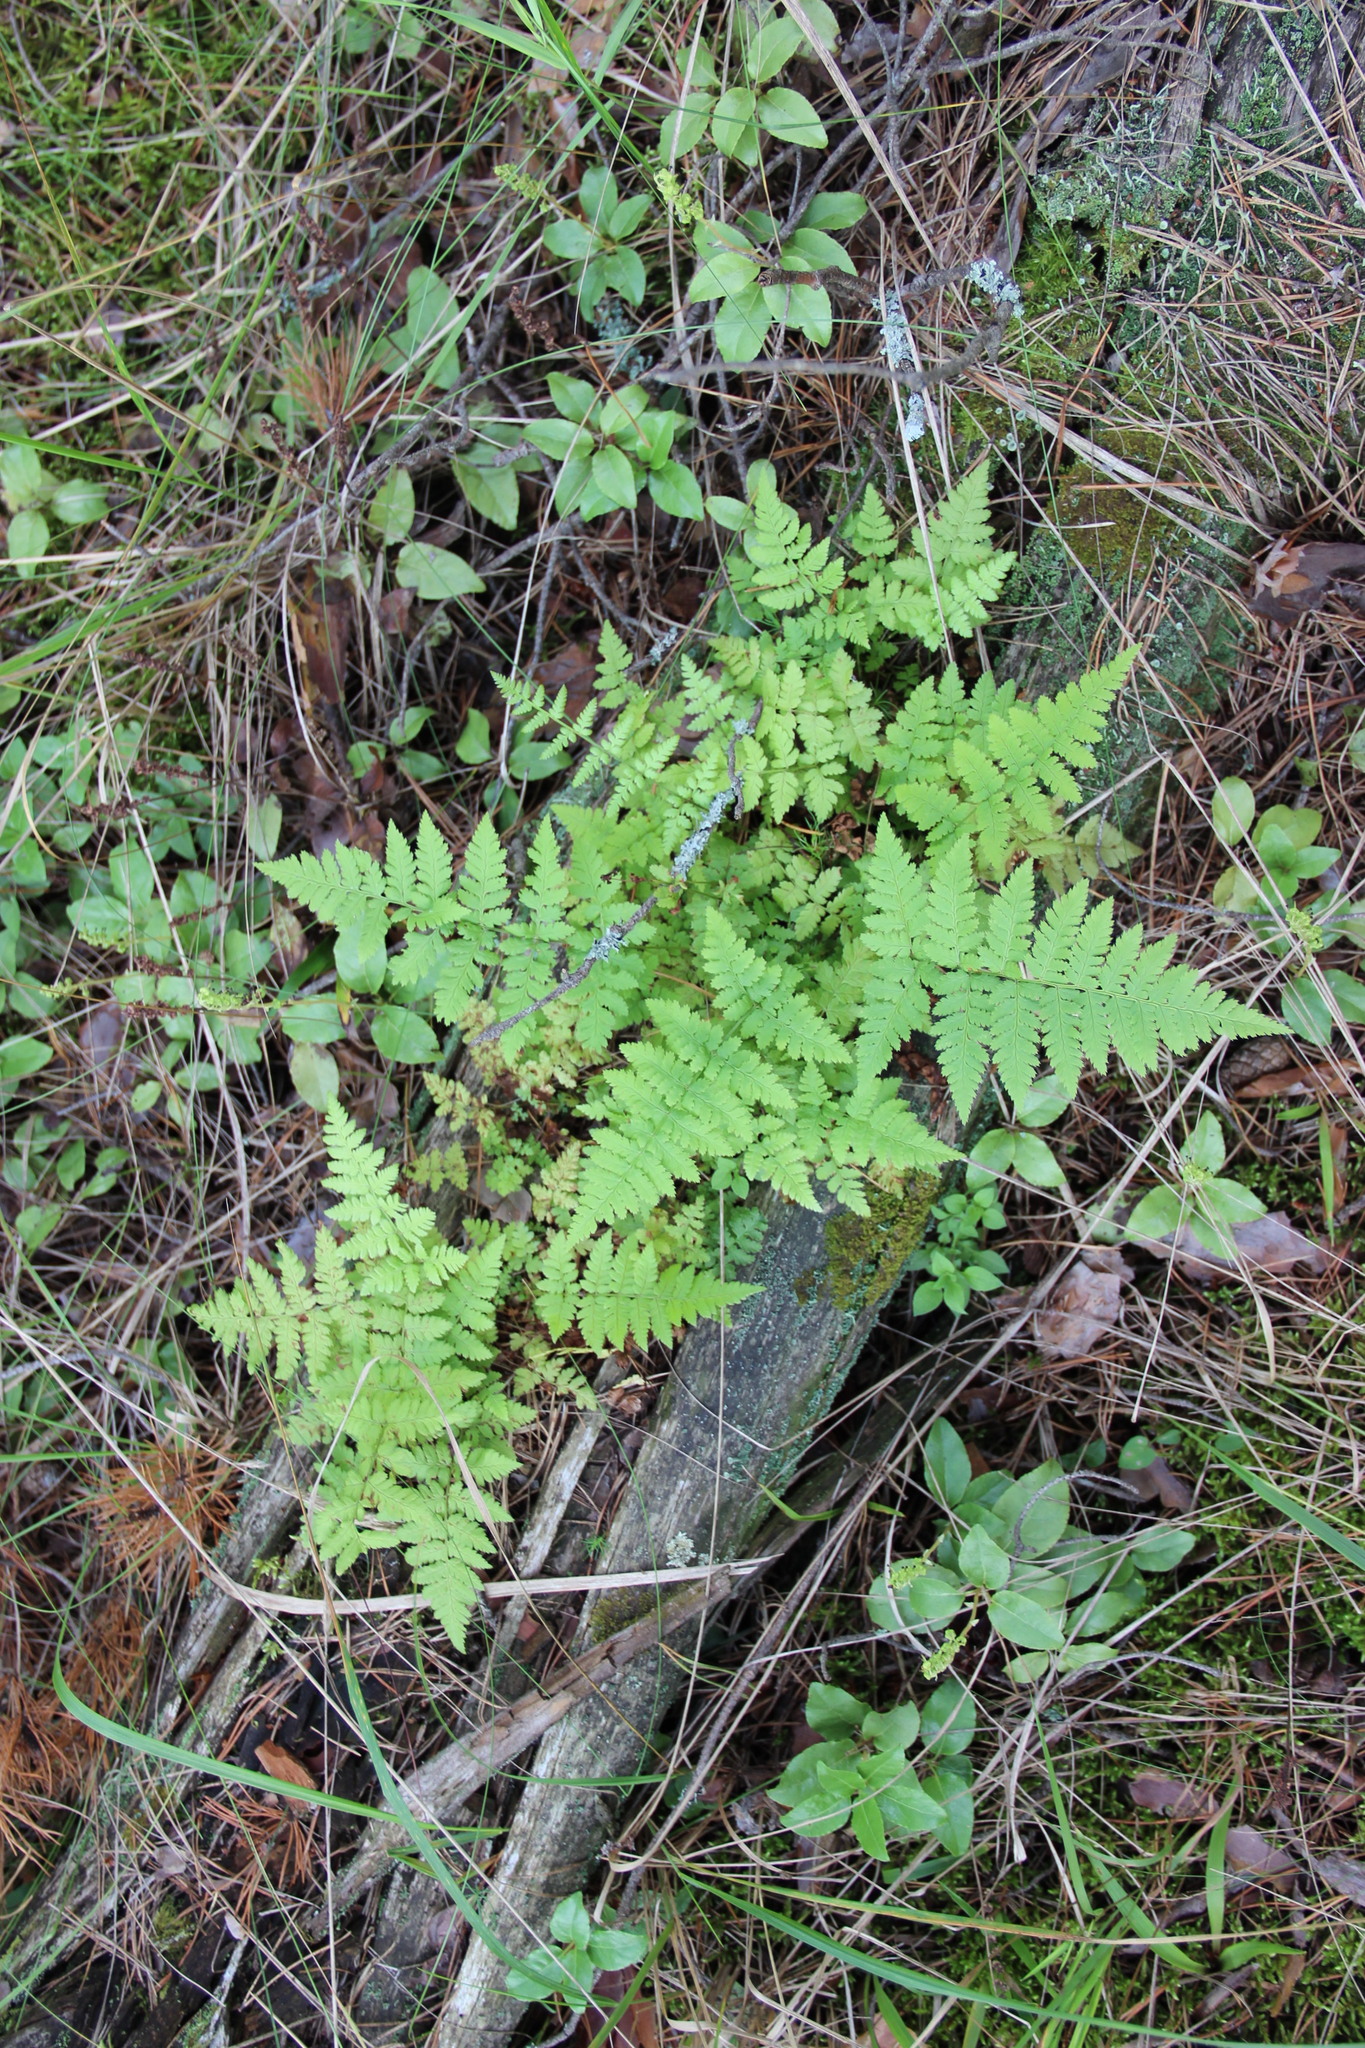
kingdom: Plantae
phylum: Tracheophyta
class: Polypodiopsida
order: Polypodiales
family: Dryopteridaceae
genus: Dryopteris
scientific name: Dryopteris carthusiana
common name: Narrow buckler-fern
